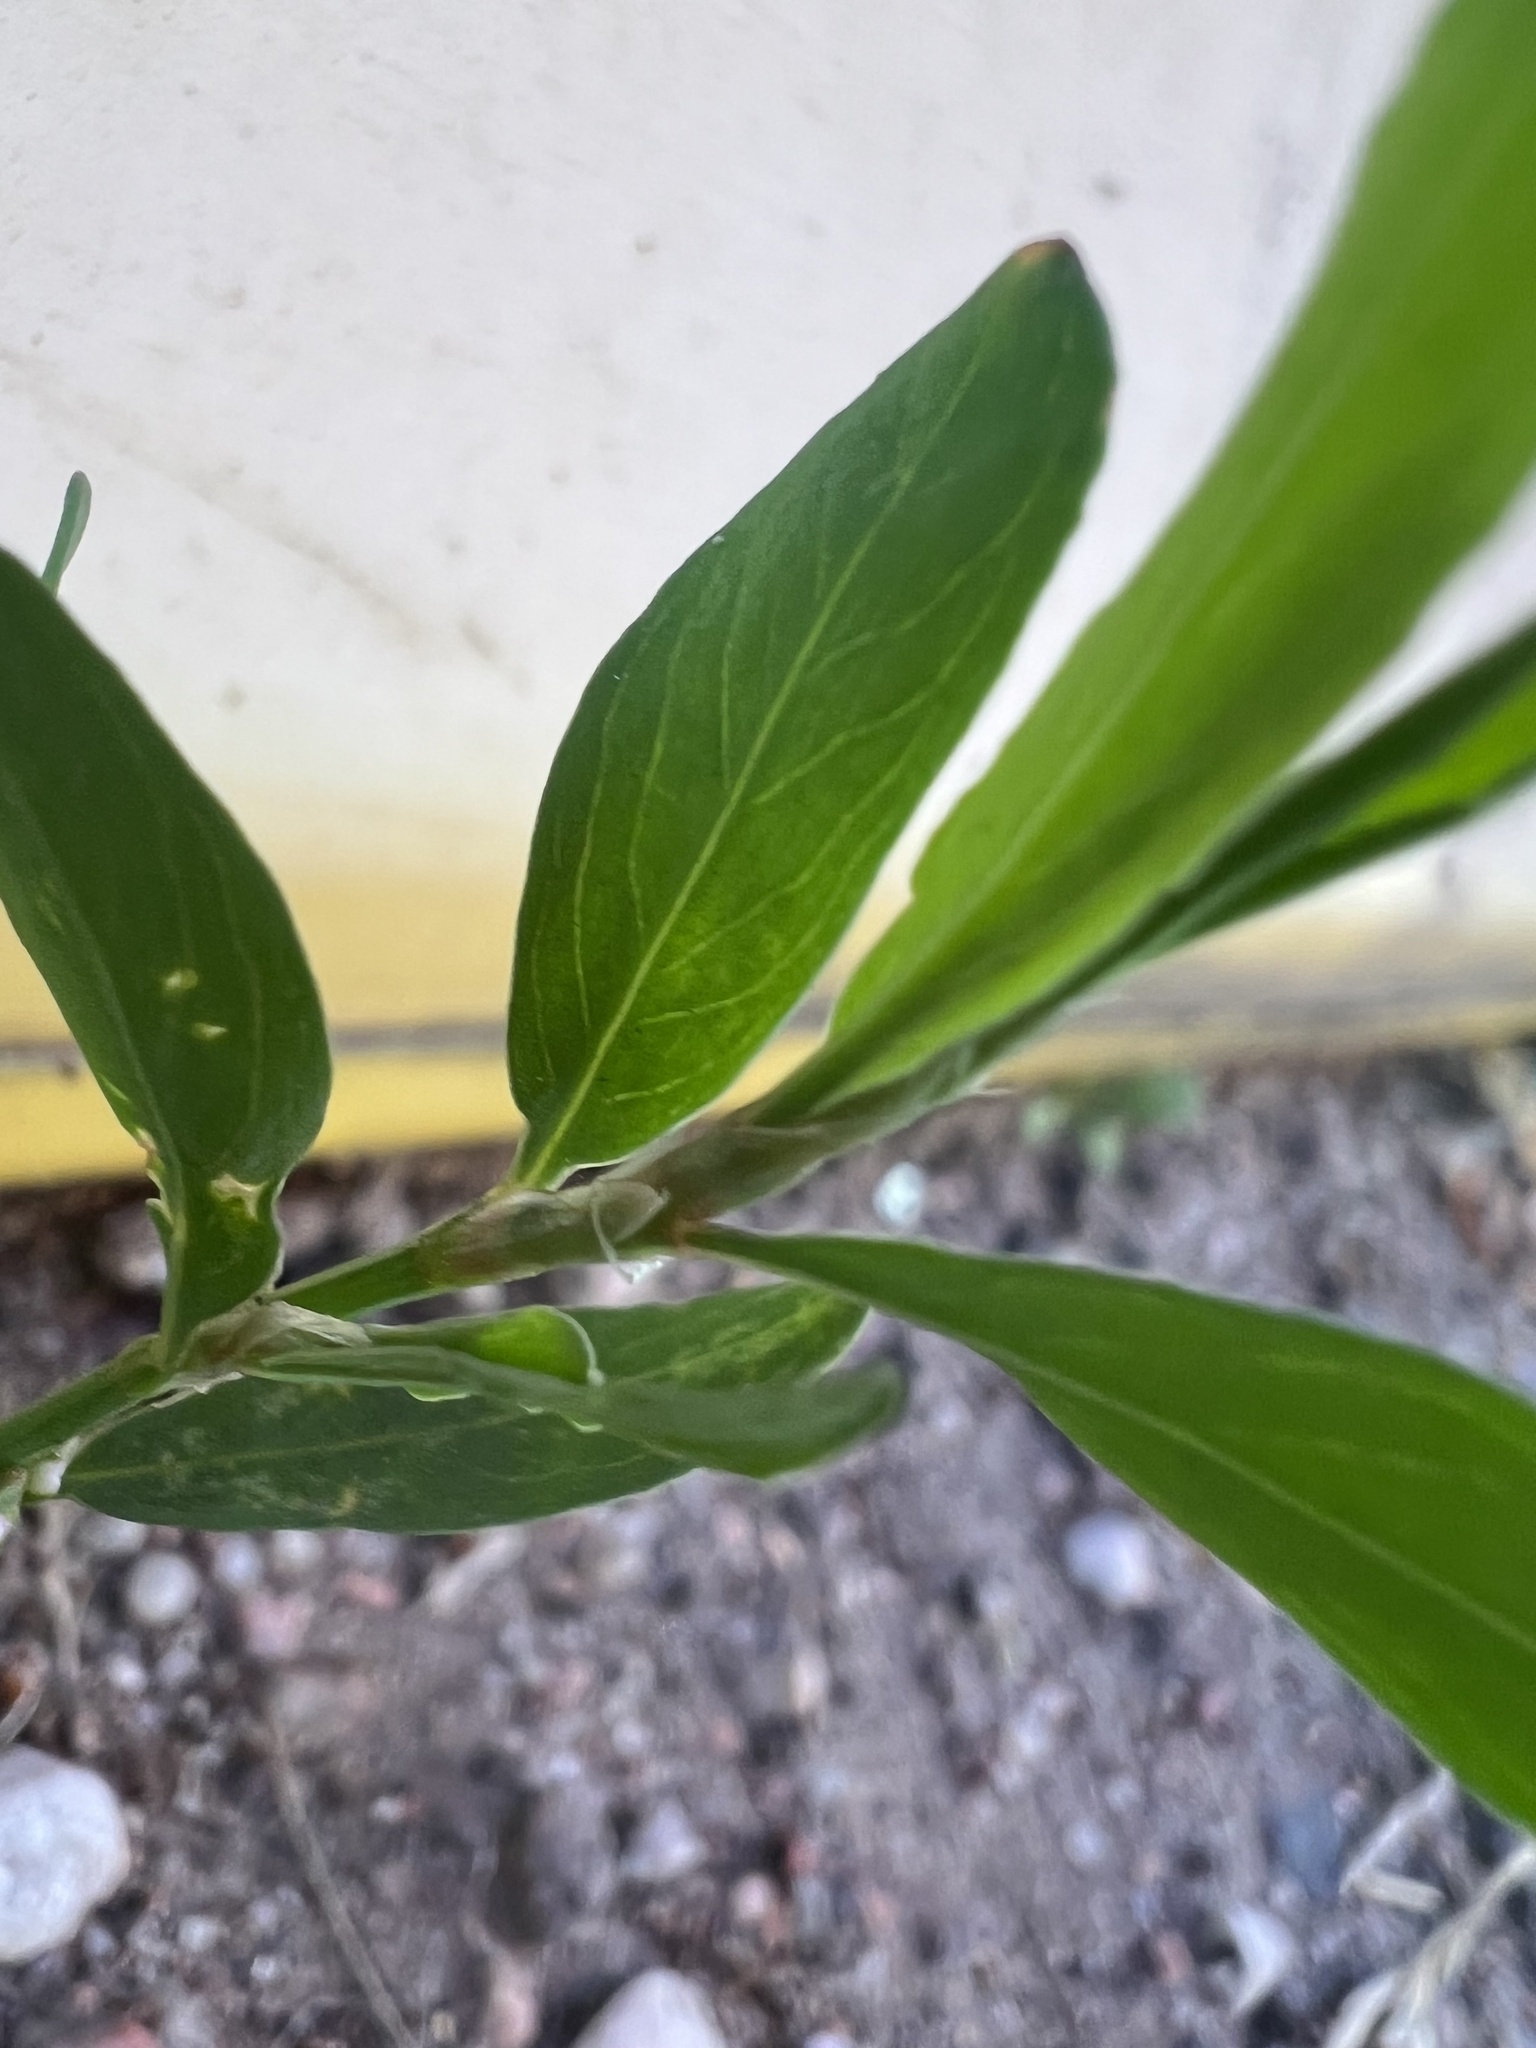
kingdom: Plantae
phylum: Tracheophyta
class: Magnoliopsida
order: Caryophyllales
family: Polygonaceae
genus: Polygonum
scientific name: Polygonum aviculare
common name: Prostrate knotweed
